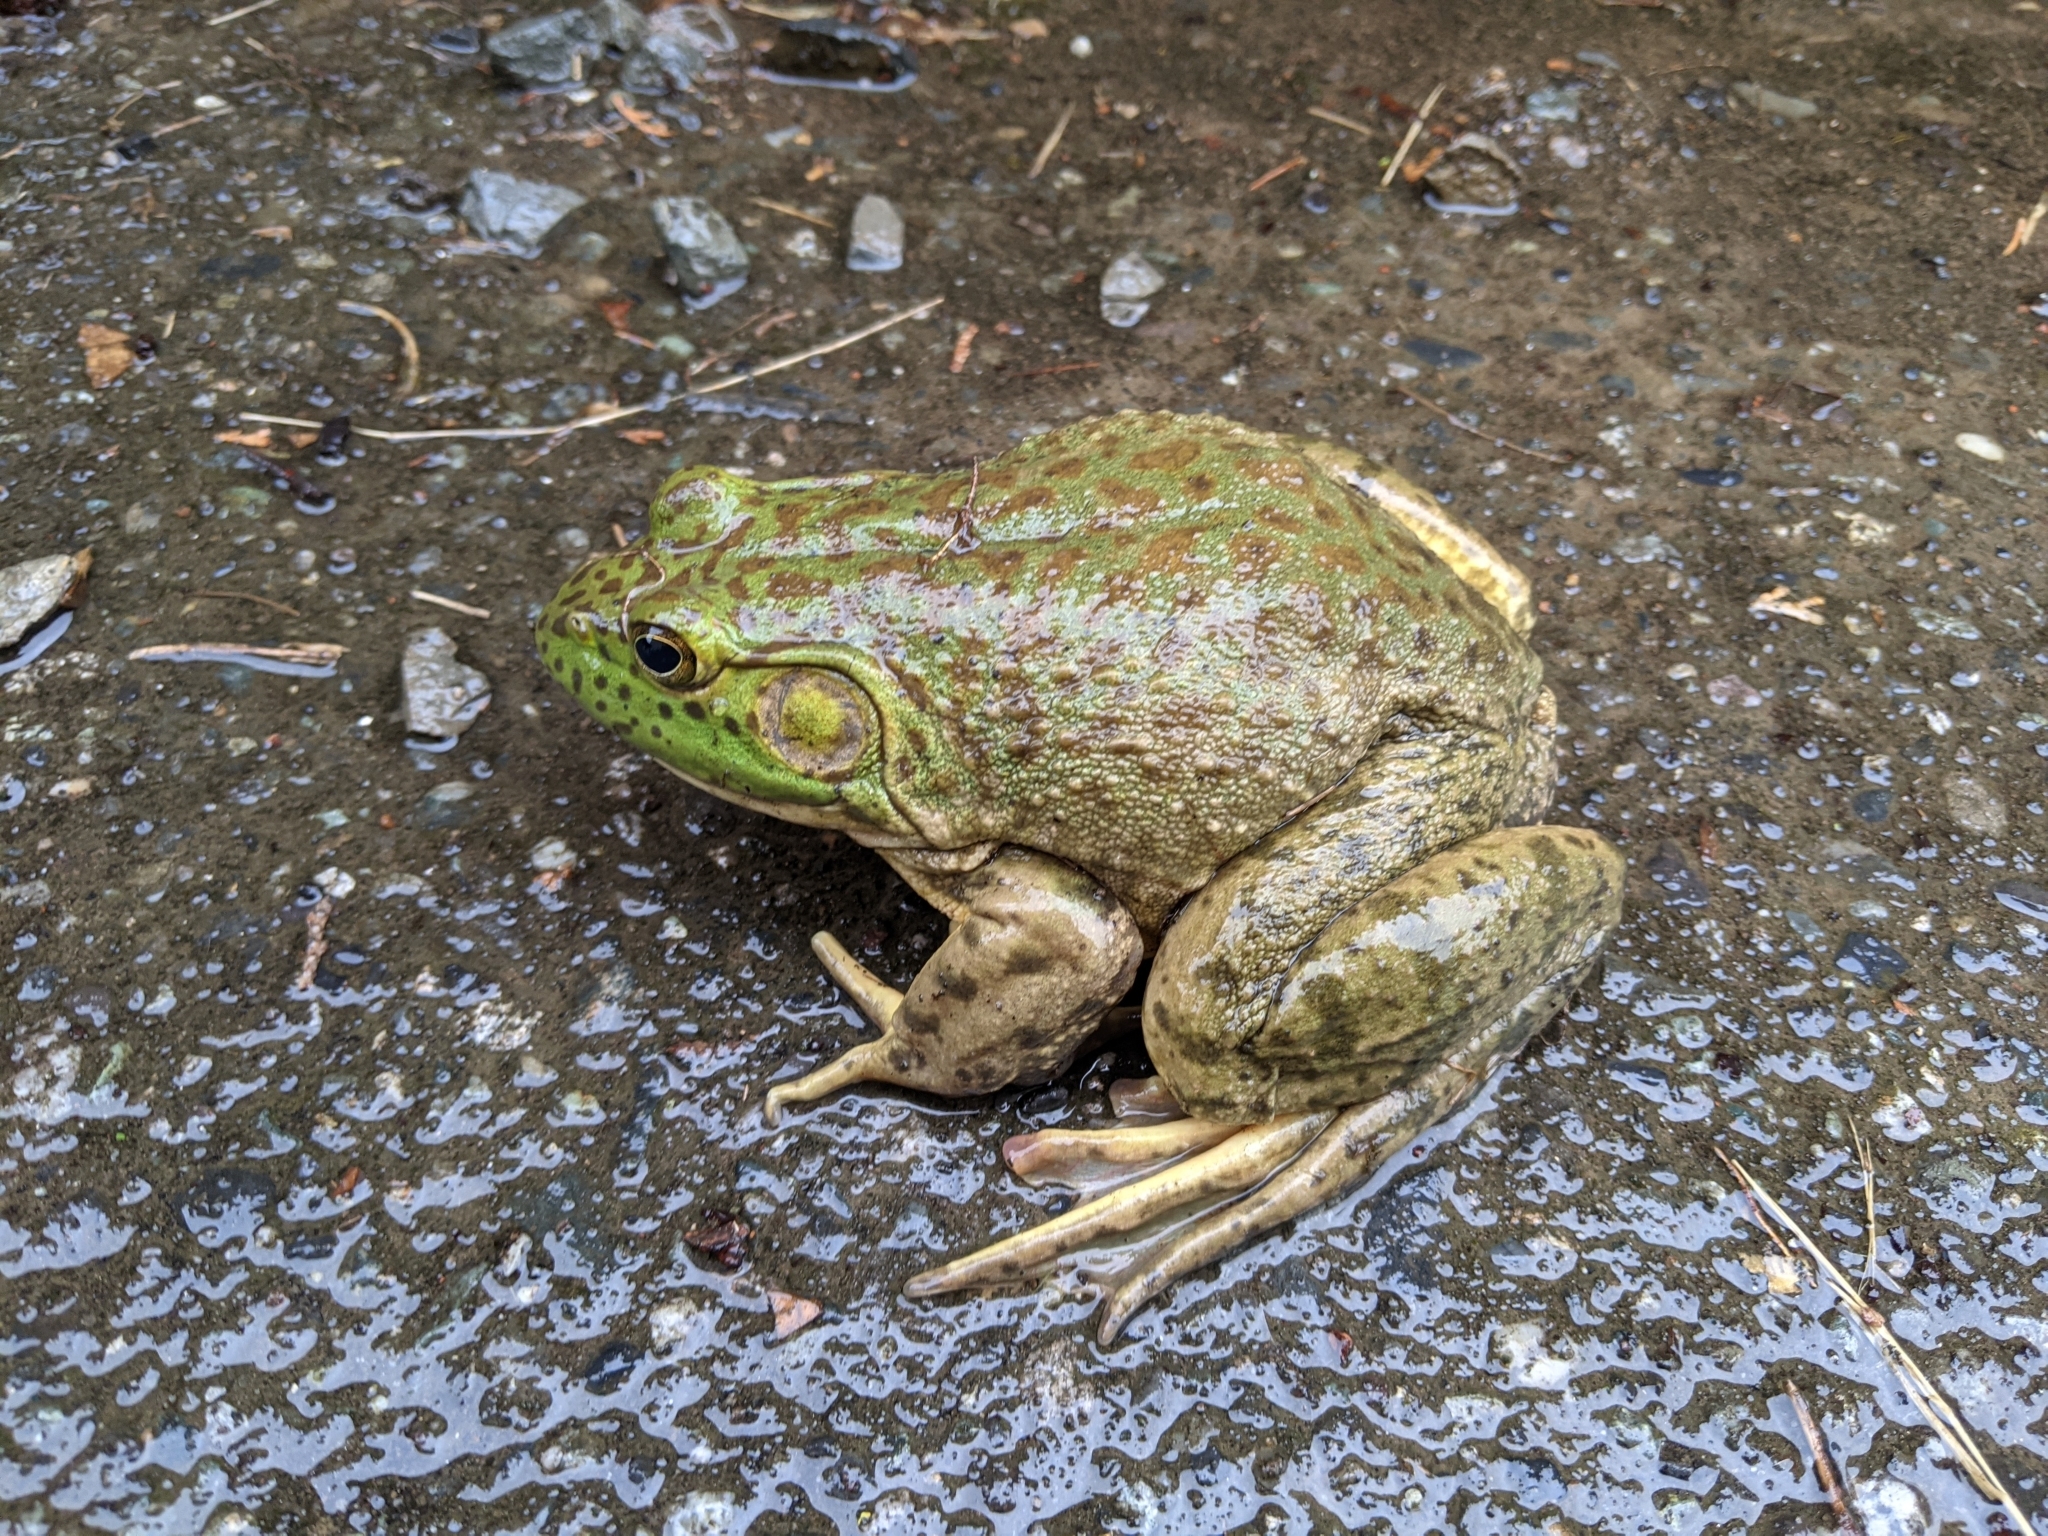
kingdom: Animalia
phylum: Chordata
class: Amphibia
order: Anura
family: Ranidae
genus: Lithobates
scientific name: Lithobates catesbeianus
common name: American bullfrog
